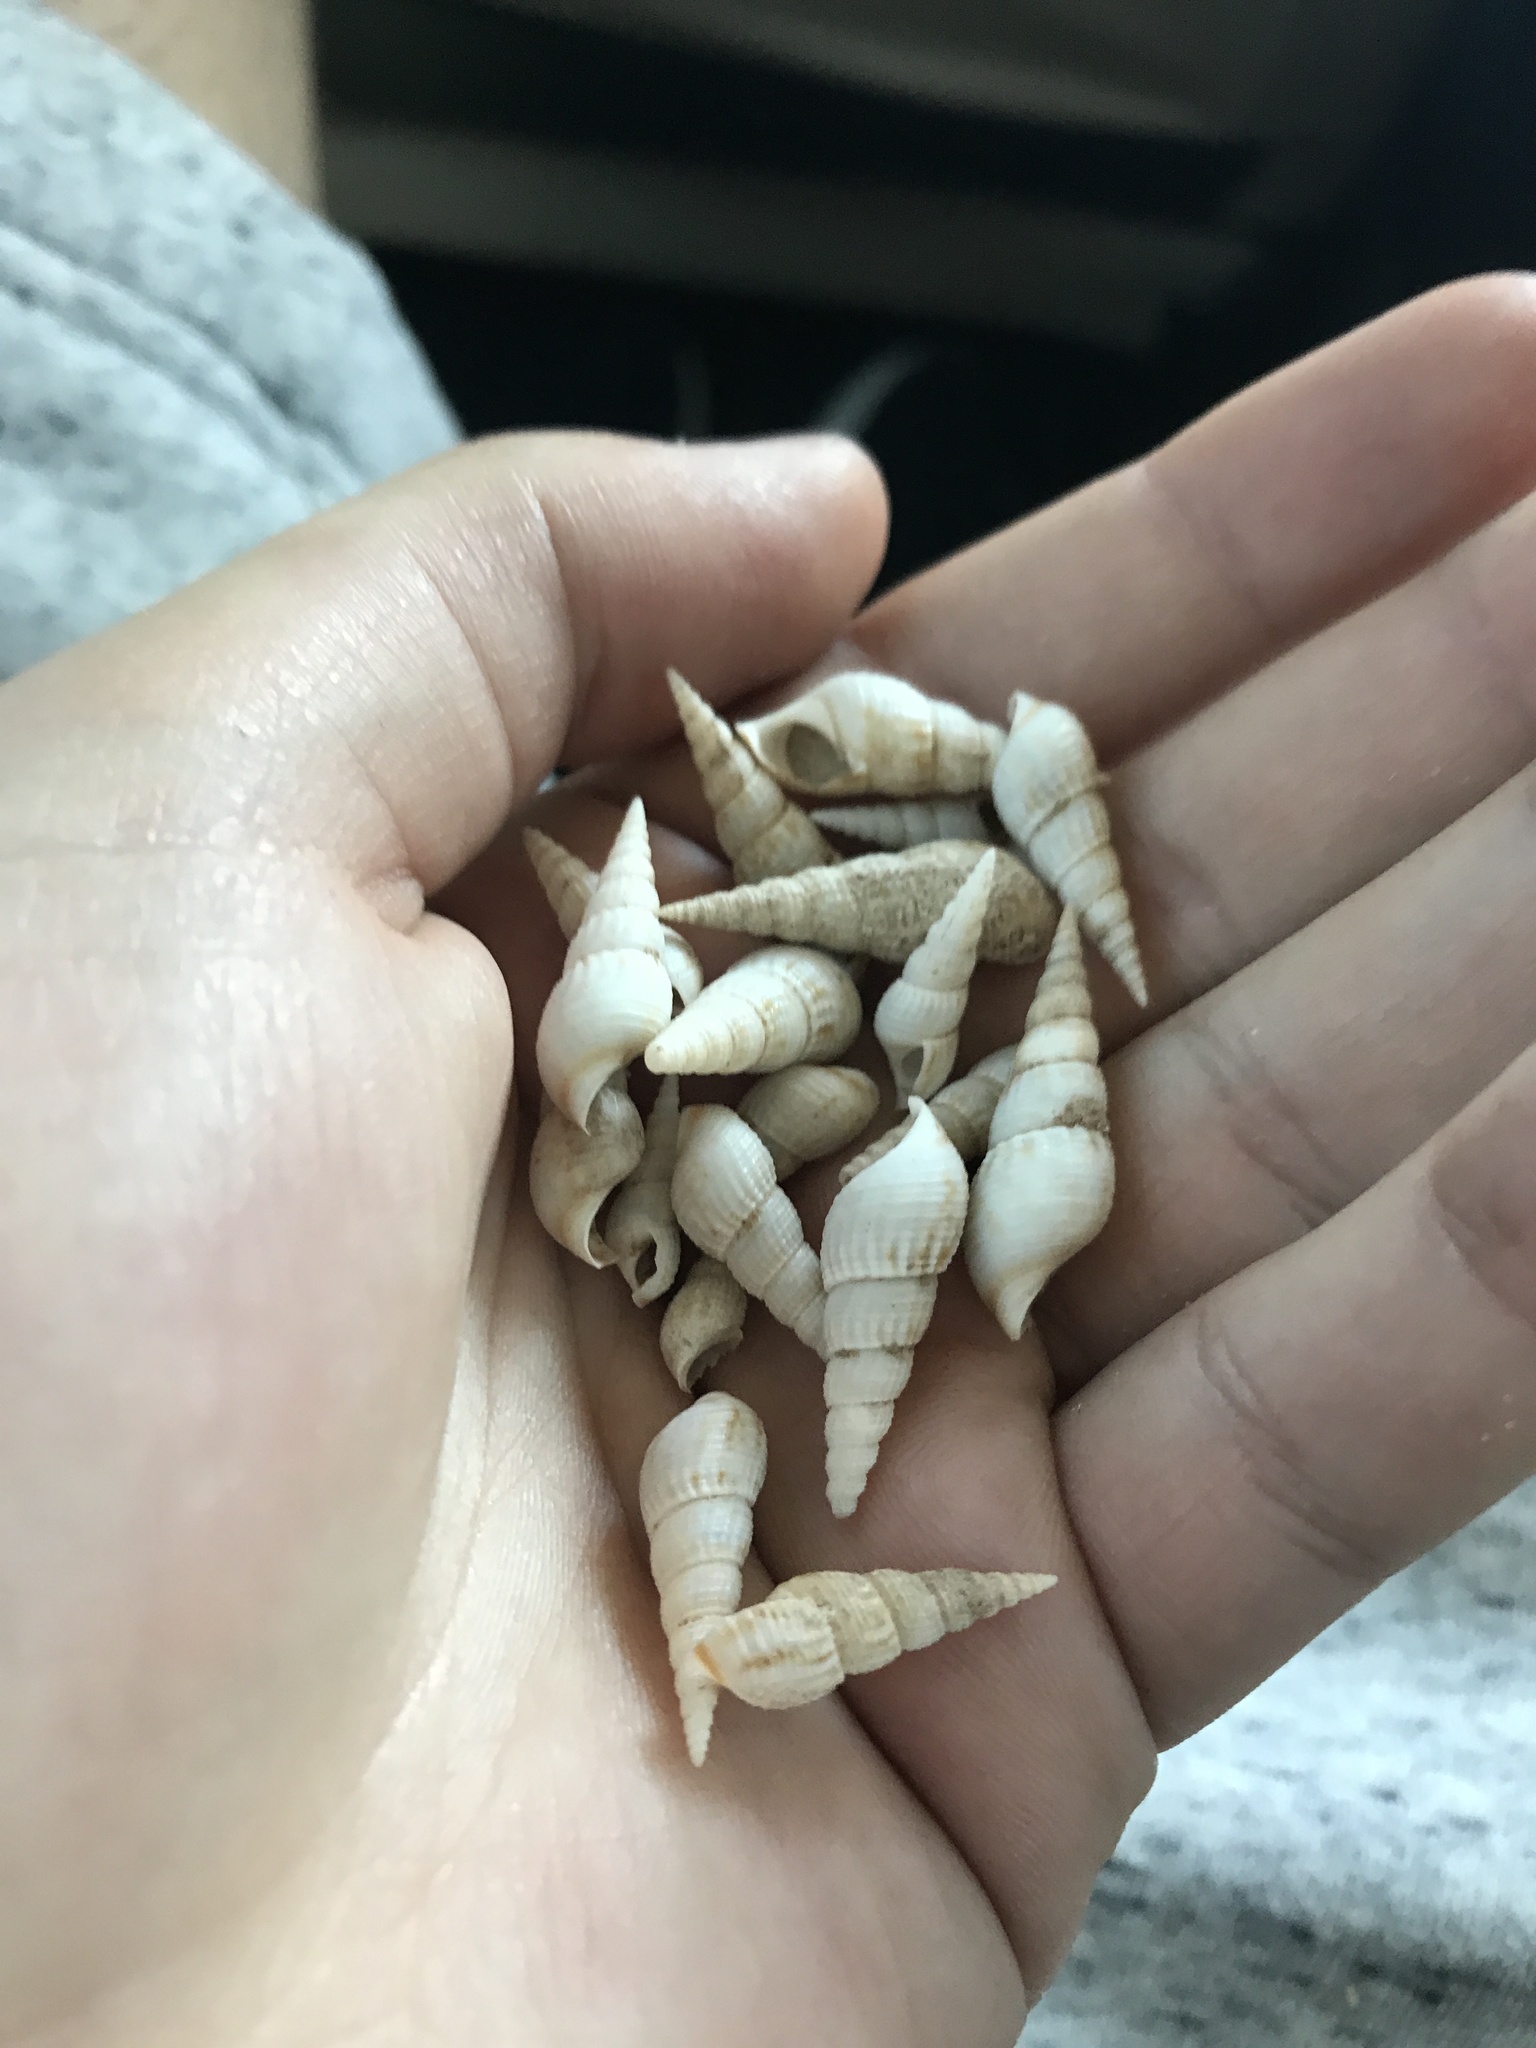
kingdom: Animalia
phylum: Mollusca
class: Gastropoda
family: Thiaridae
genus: Melanoides
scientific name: Melanoides tuberculata
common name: Red-rim melania
